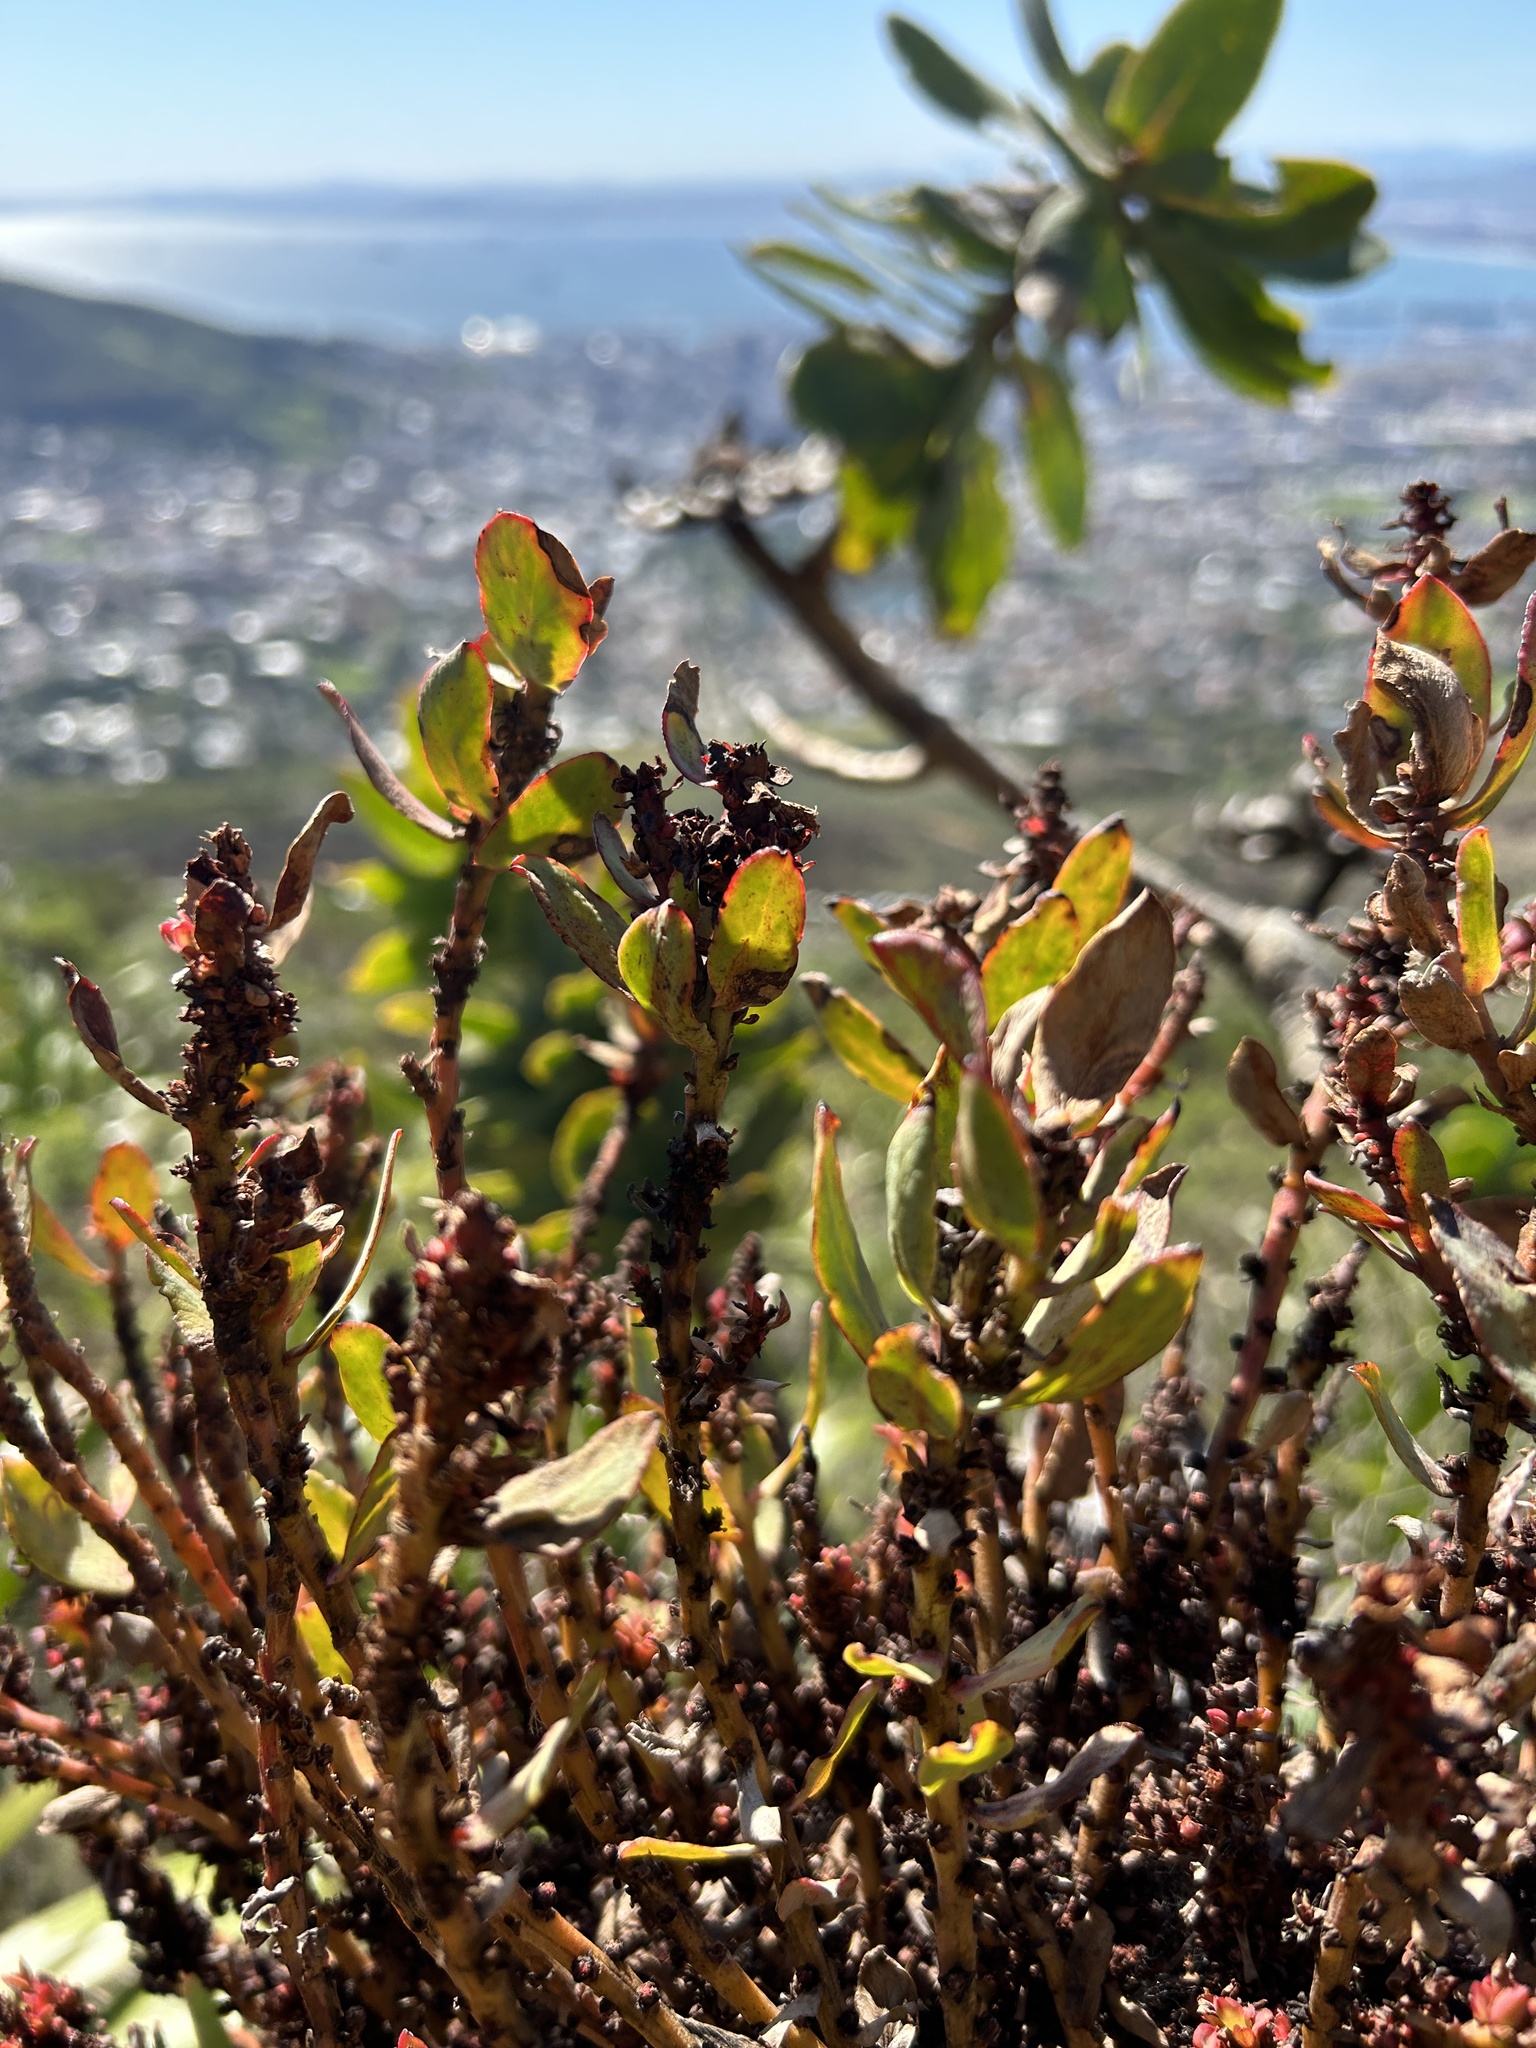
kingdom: Bacteria
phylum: Firmicutes
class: Bacilli
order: Acholeplasmatales
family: Acholeplasmataceae
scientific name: Acholeplasmataceae
